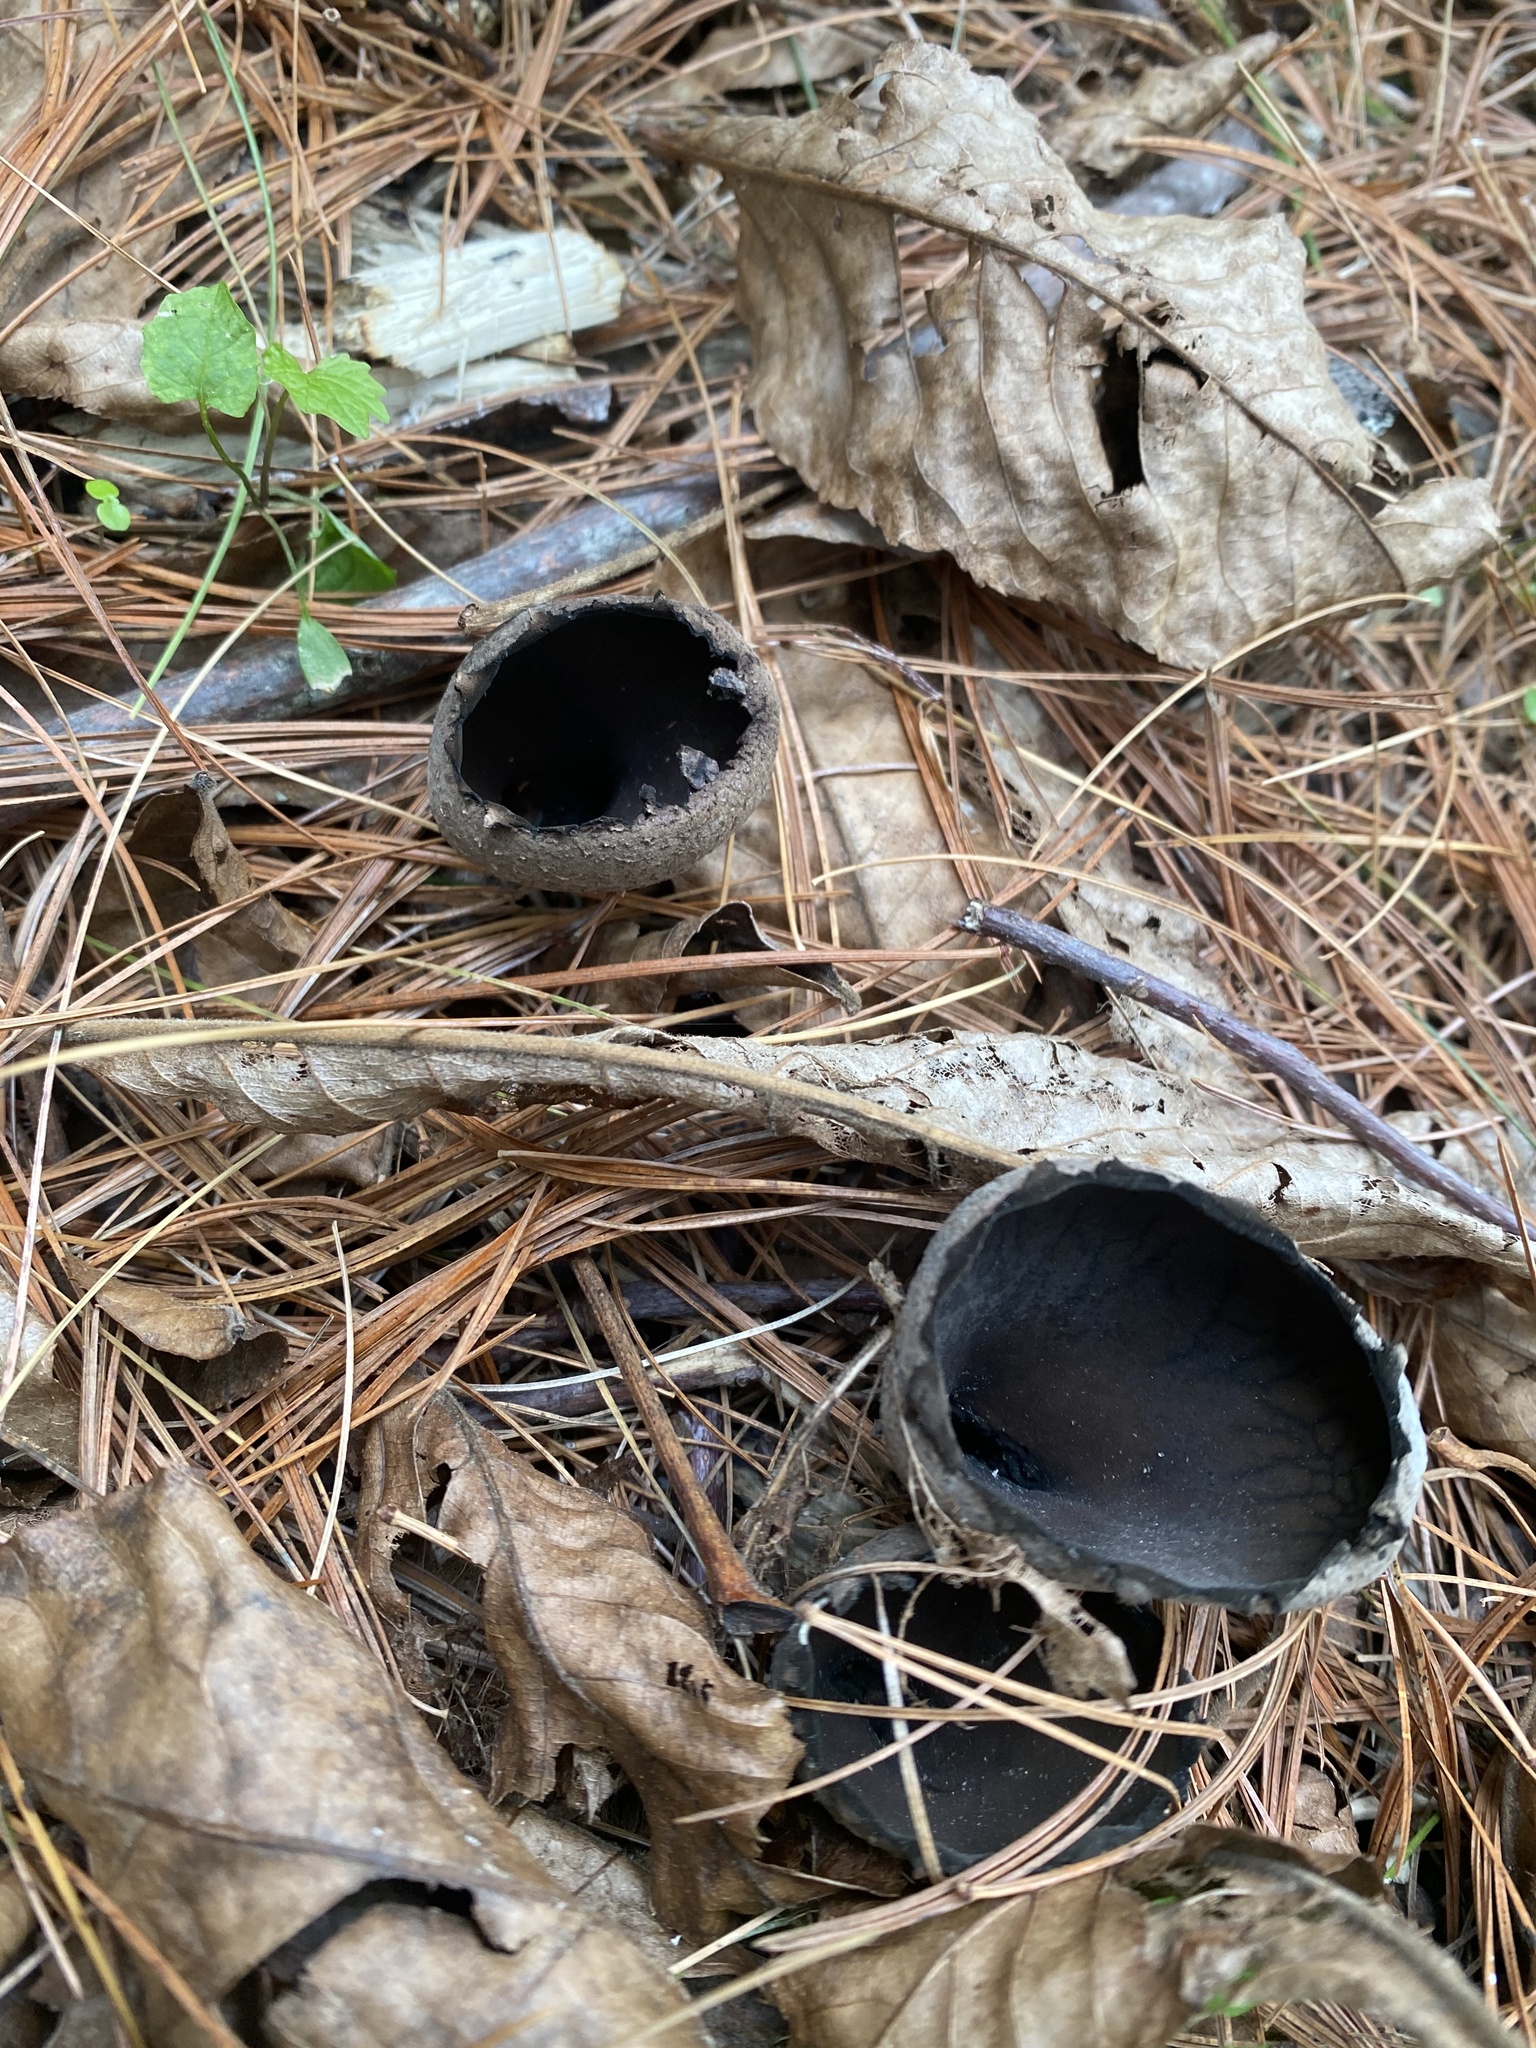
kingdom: Fungi
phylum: Ascomycota
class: Pezizomycetes
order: Pezizales
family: Sarcosomataceae
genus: Urnula
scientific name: Urnula craterium
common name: Devil's urn
